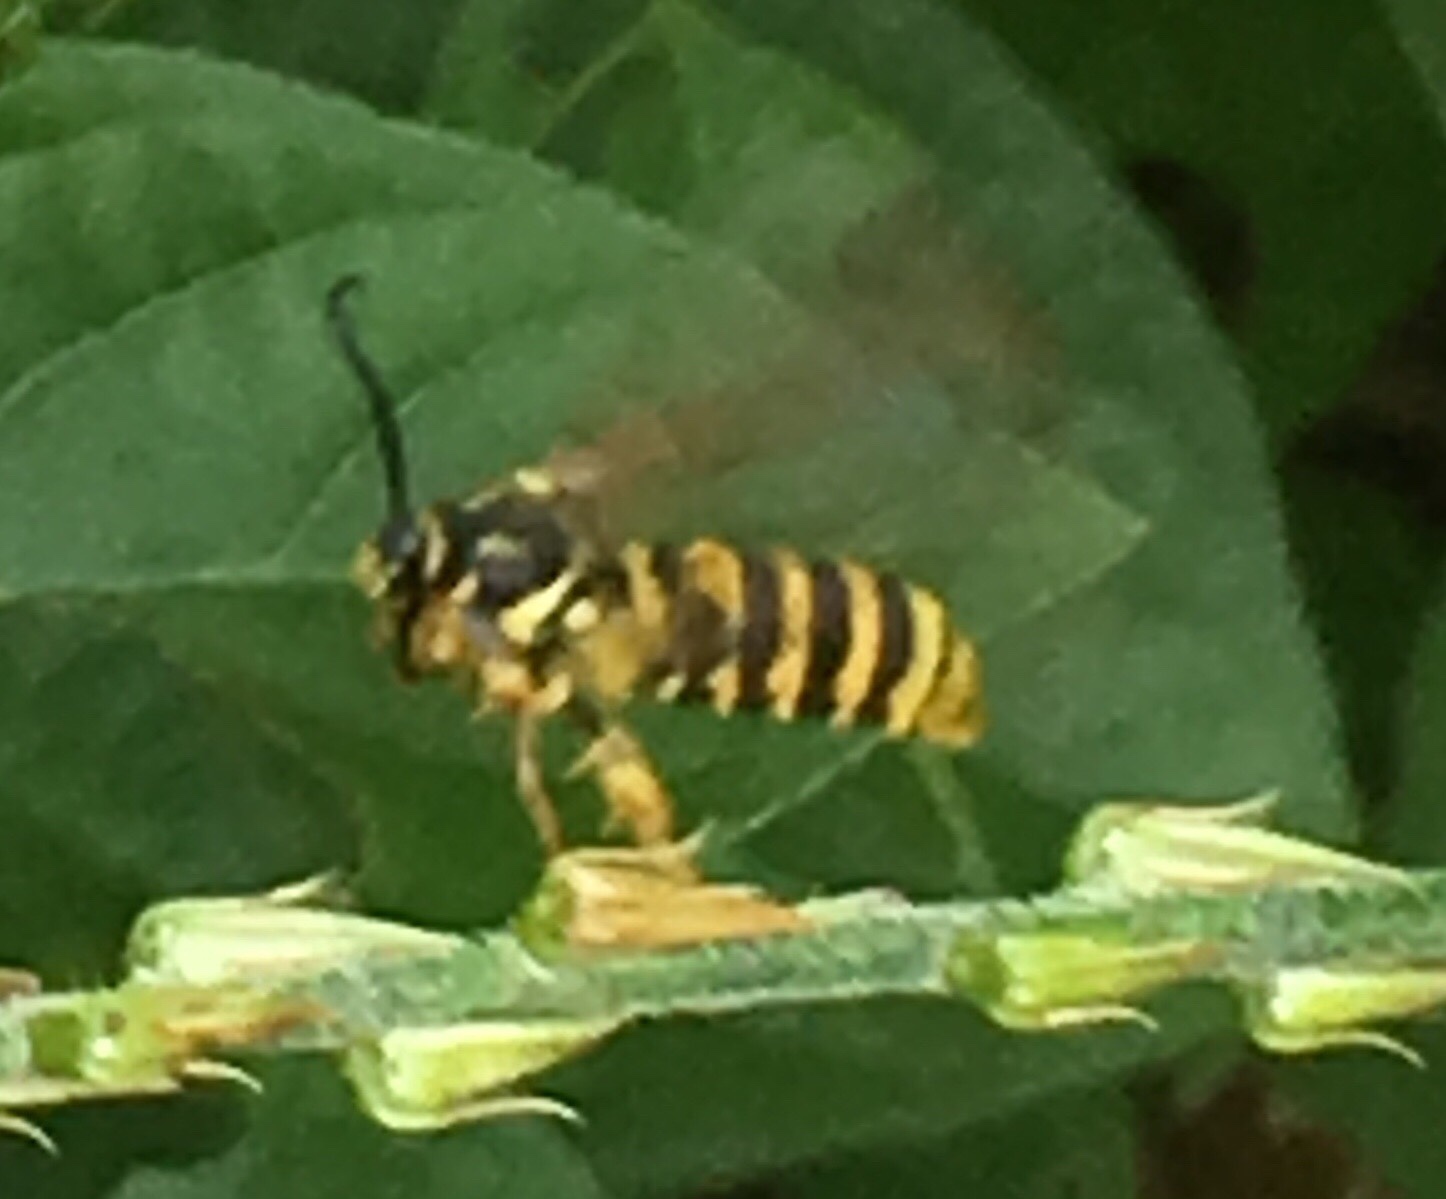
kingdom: Animalia
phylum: Arthropoda
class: Insecta
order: Lepidoptera
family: Sesiidae
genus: Pennisetia
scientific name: Pennisetia marginatum
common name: Raspberry crown borer
